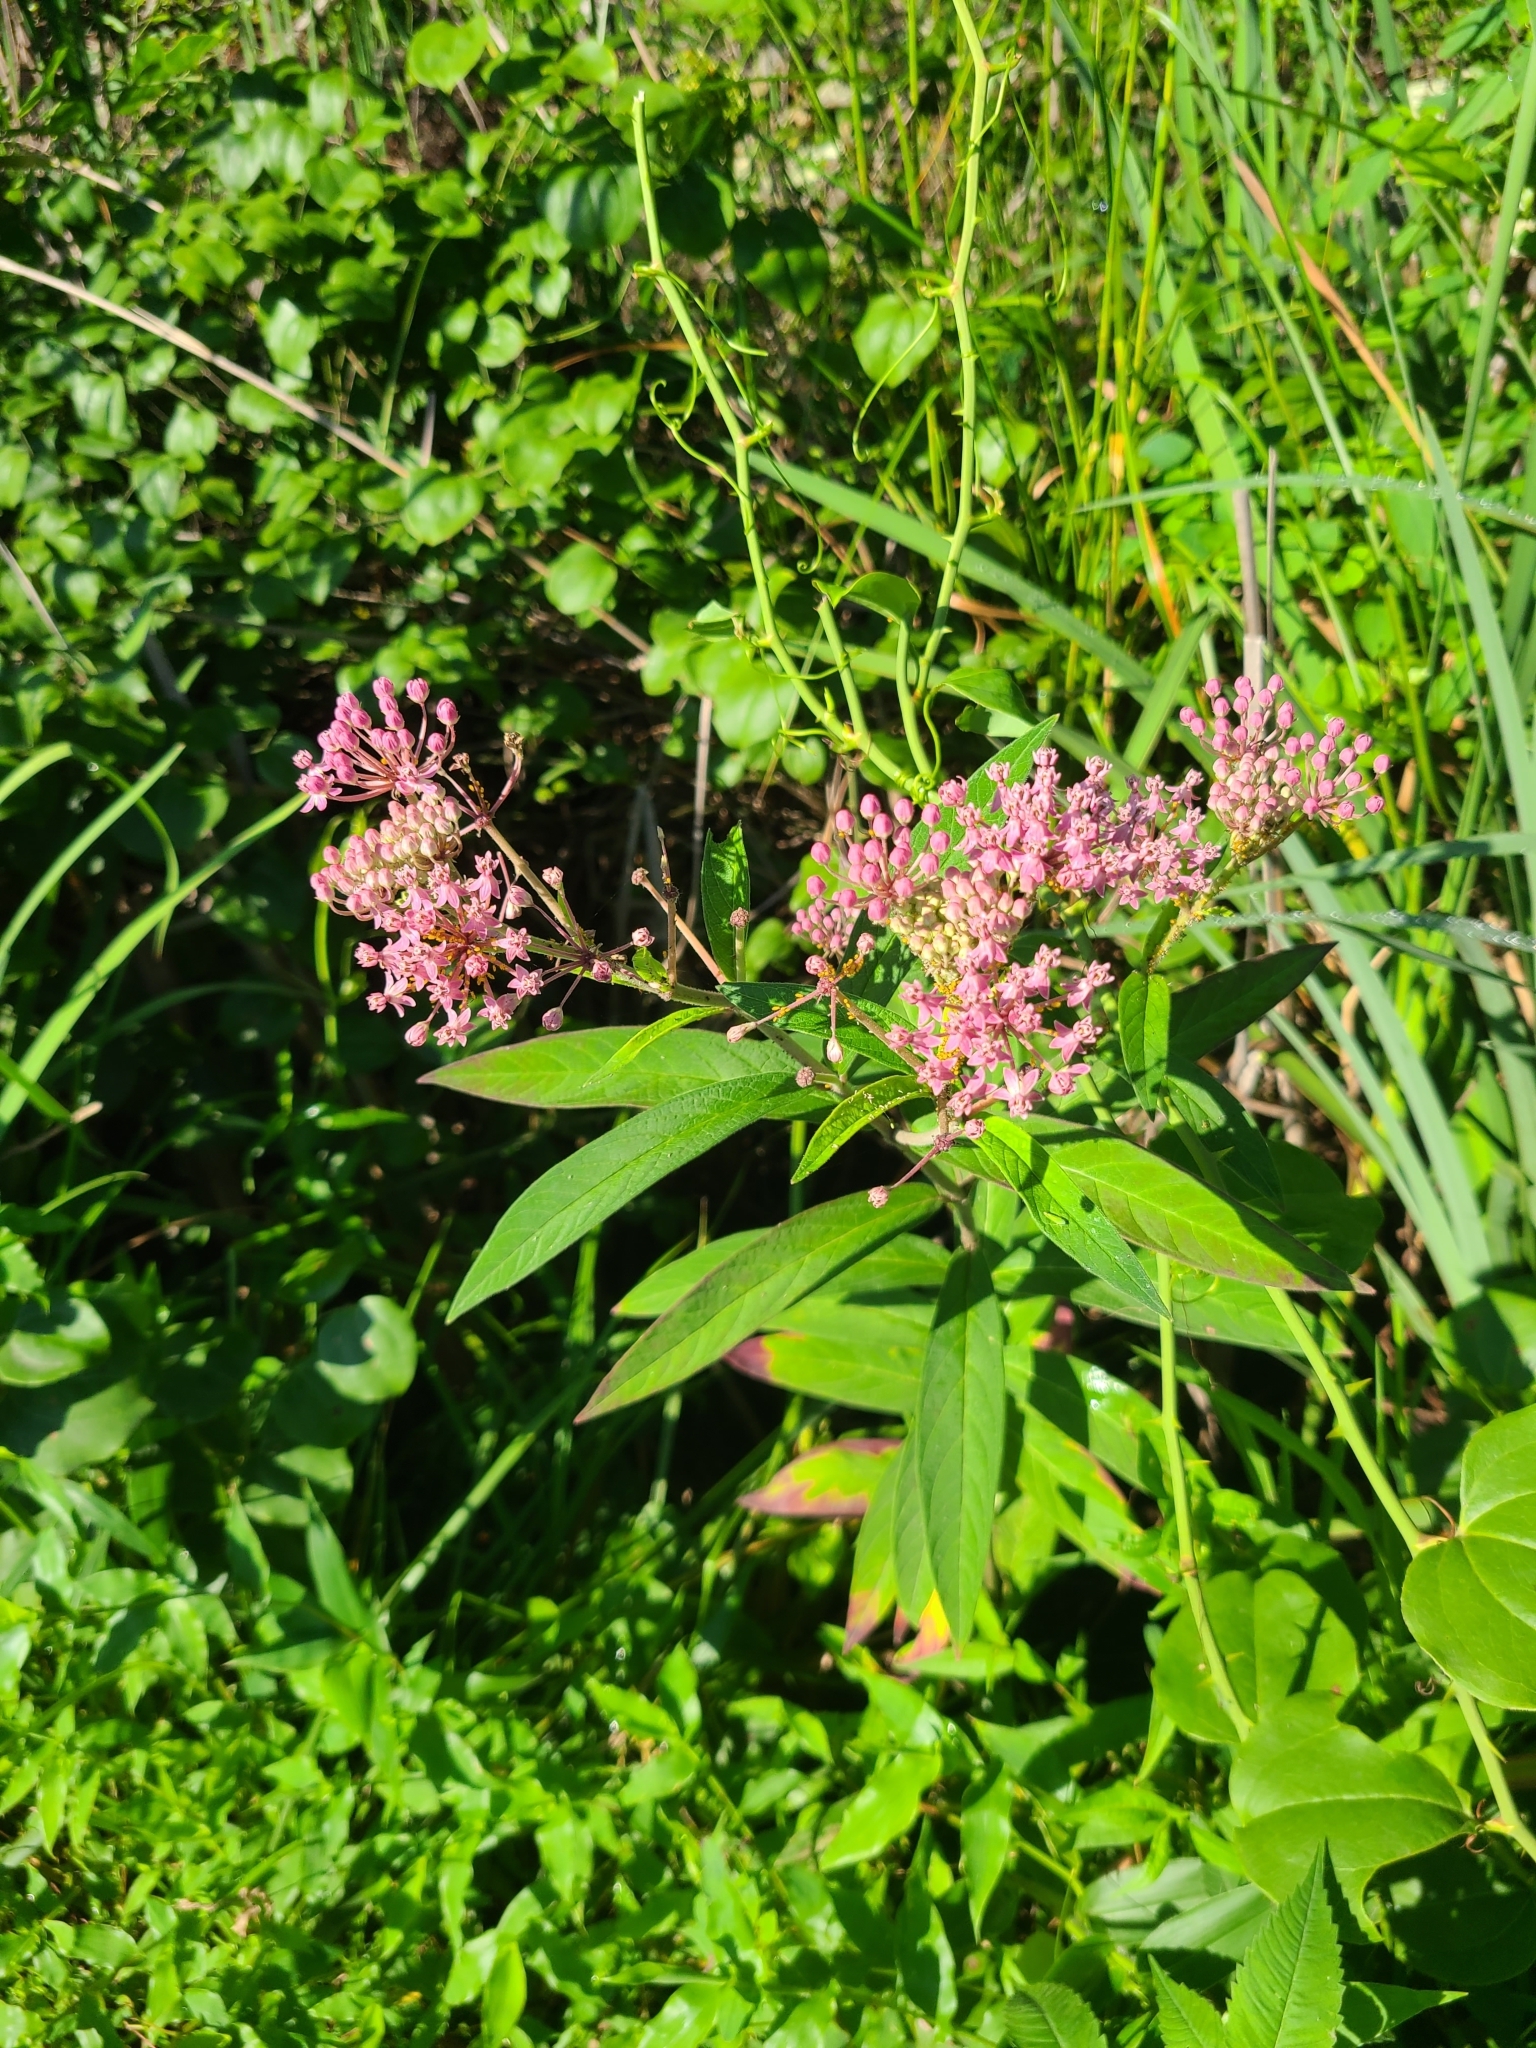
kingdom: Plantae
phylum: Tracheophyta
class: Magnoliopsida
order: Gentianales
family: Apocynaceae
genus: Asclepias
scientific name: Asclepias incarnata
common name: Swamp milkweed
